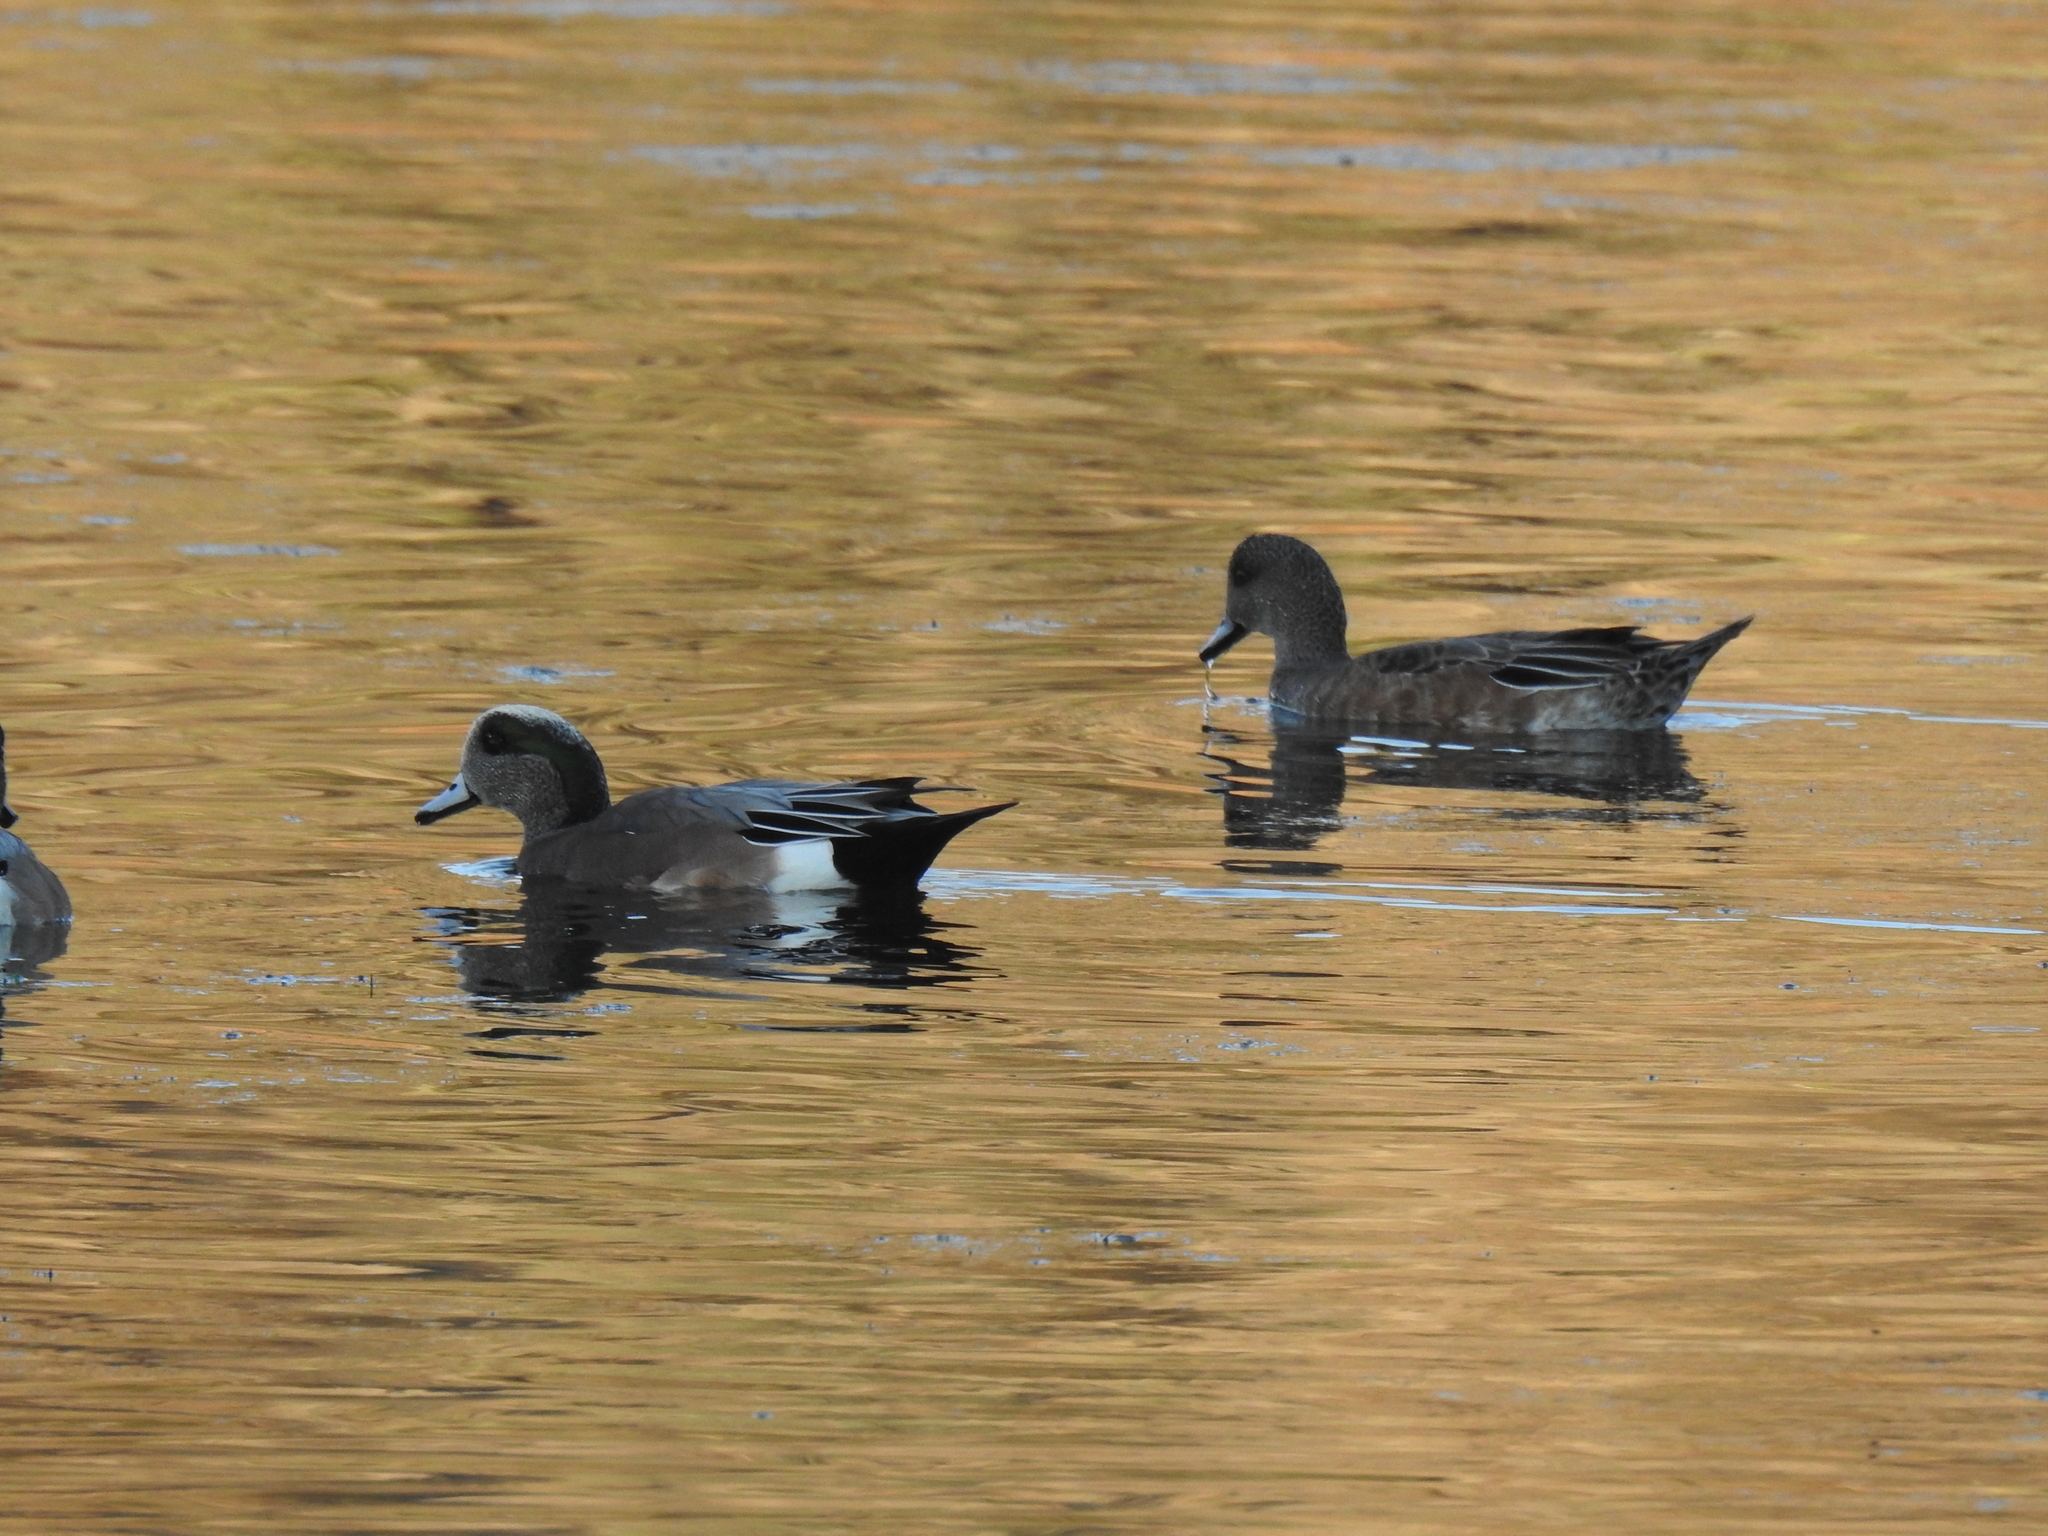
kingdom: Animalia
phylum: Chordata
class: Aves
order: Anseriformes
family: Anatidae
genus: Mareca
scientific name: Mareca americana
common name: American wigeon
